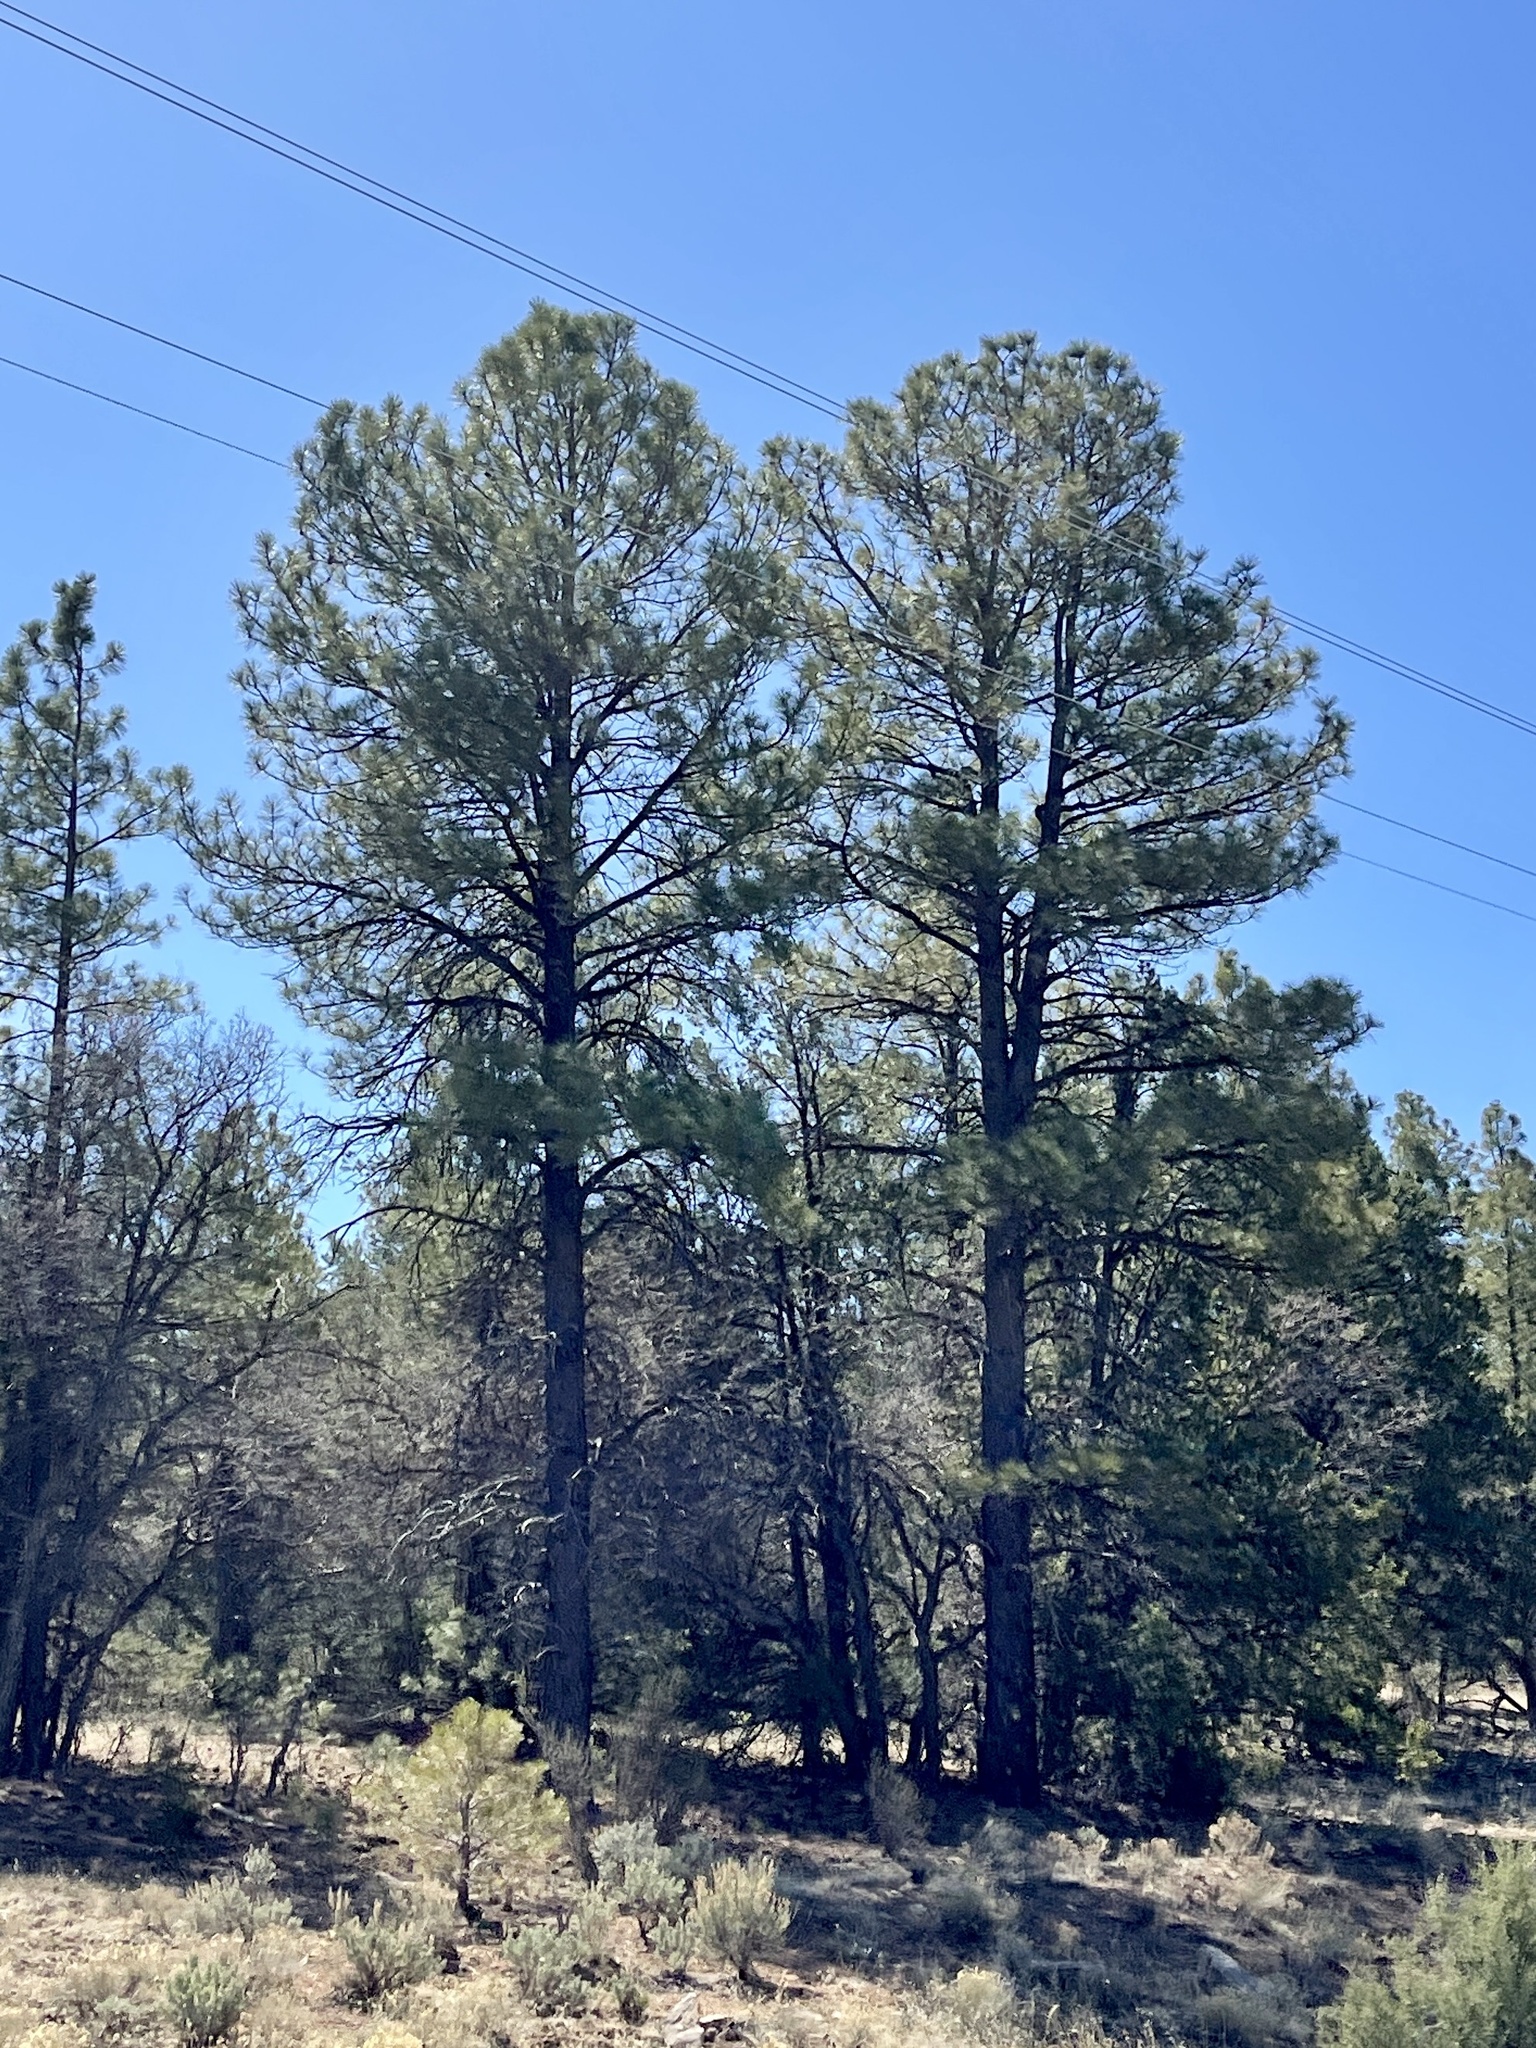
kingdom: Plantae
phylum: Tracheophyta
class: Pinopsida
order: Pinales
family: Pinaceae
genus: Pinus
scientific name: Pinus ponderosa
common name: Western yellow-pine
